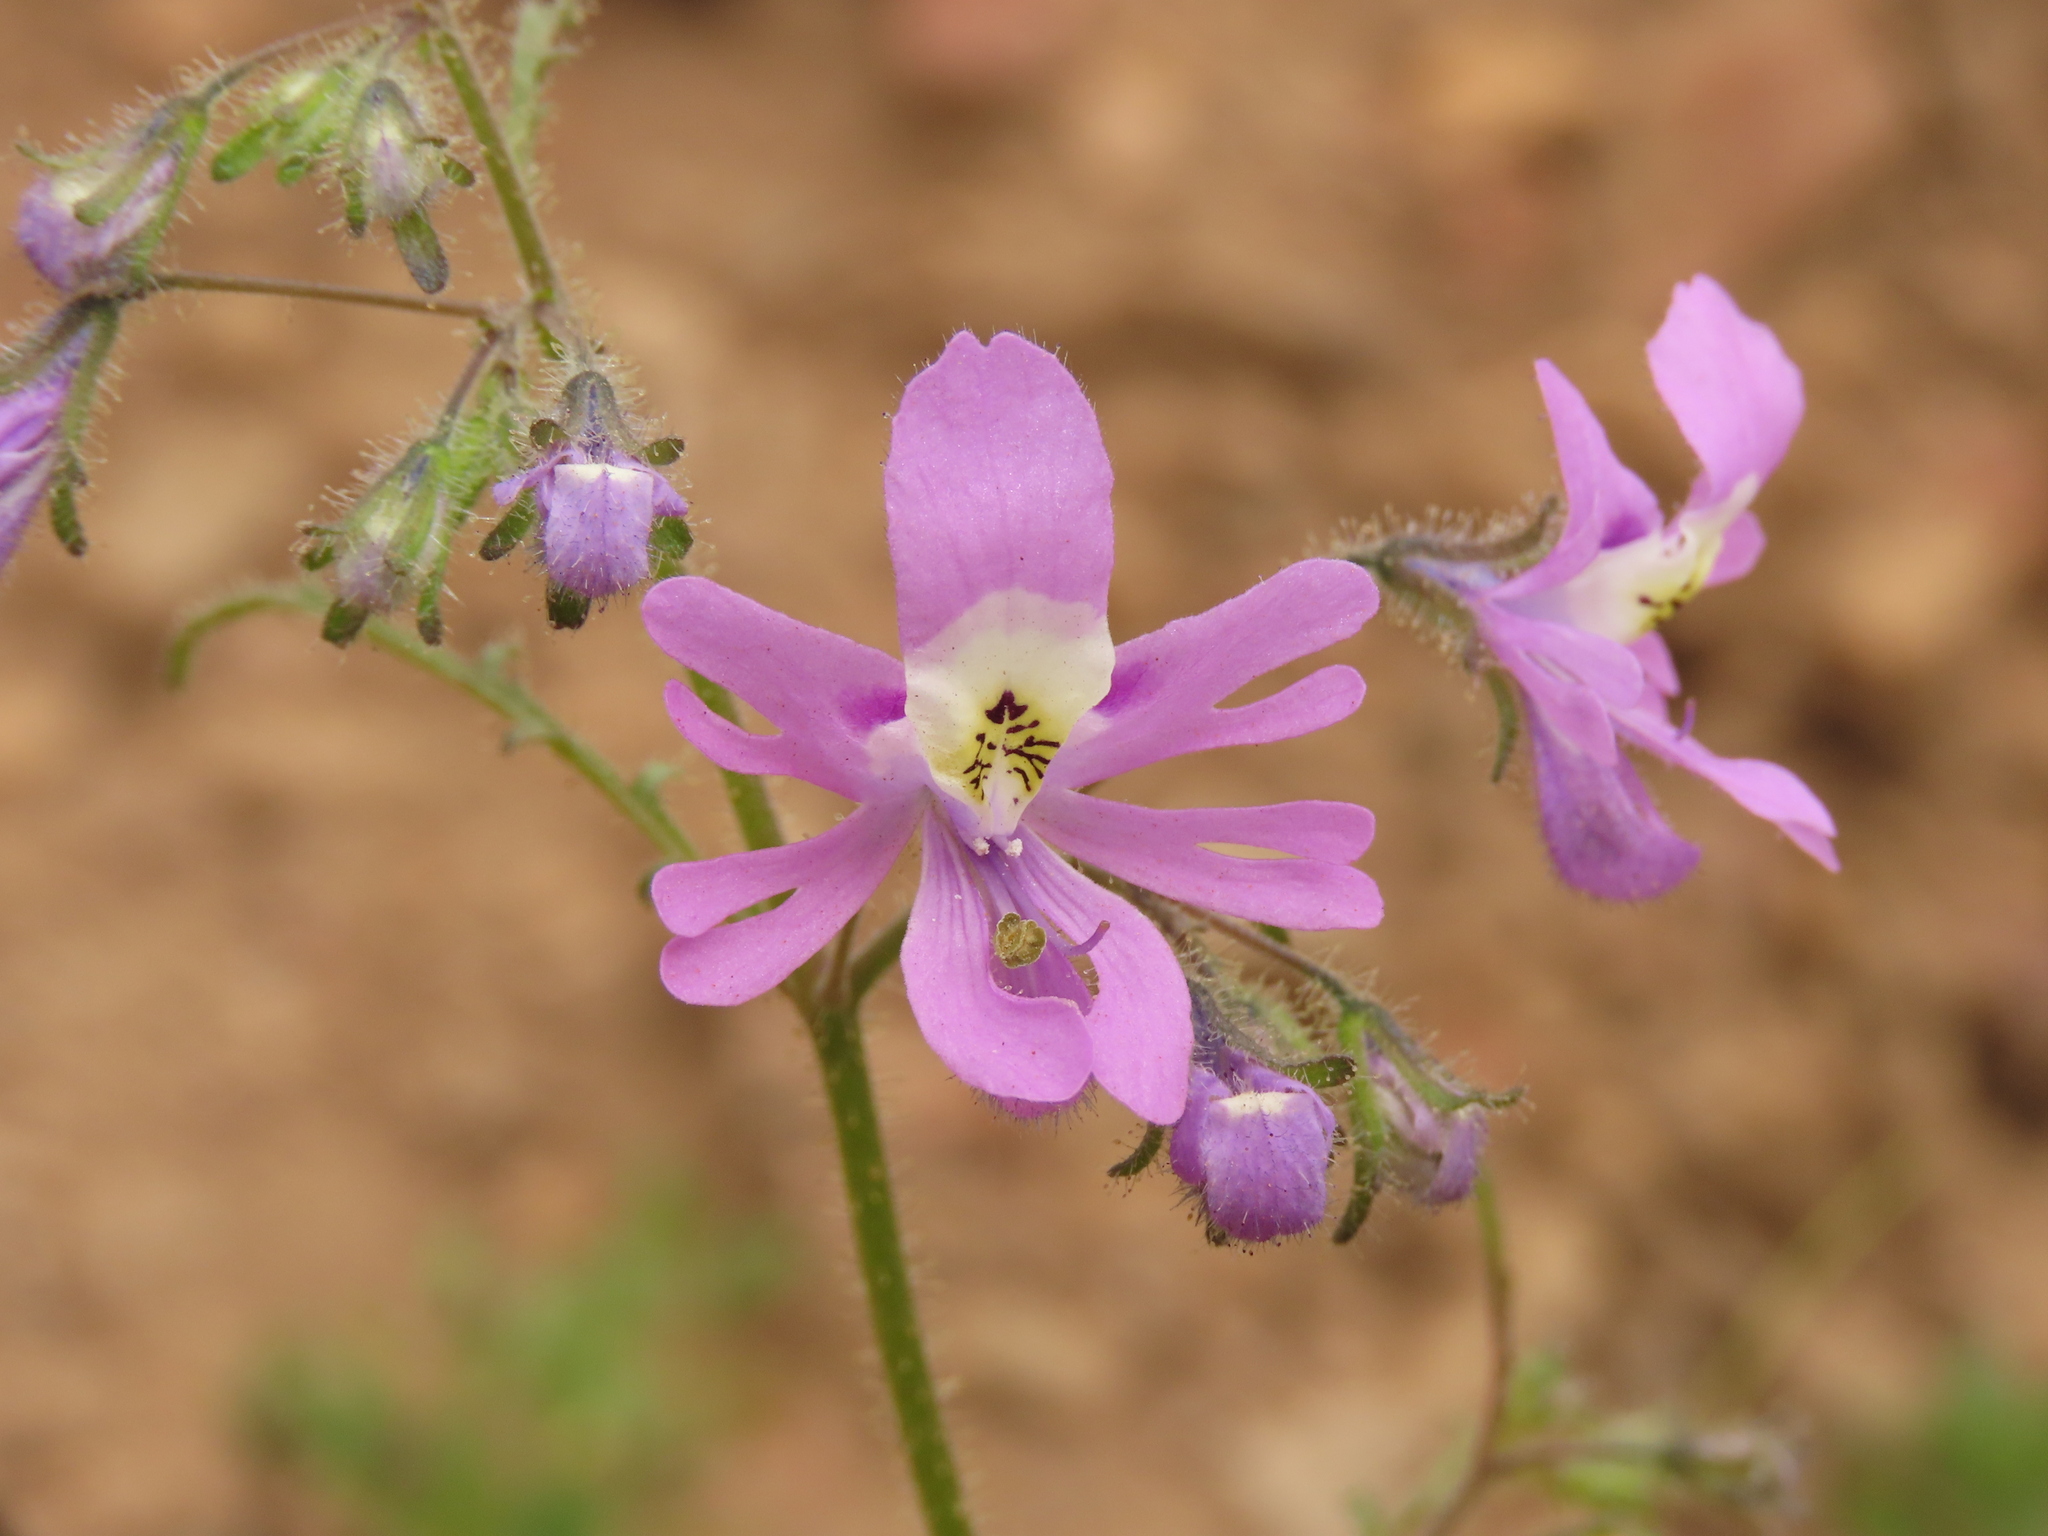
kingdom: Plantae
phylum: Tracheophyta
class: Magnoliopsida
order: Solanales
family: Solanaceae
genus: Schizanthus
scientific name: Schizanthus porrigens
